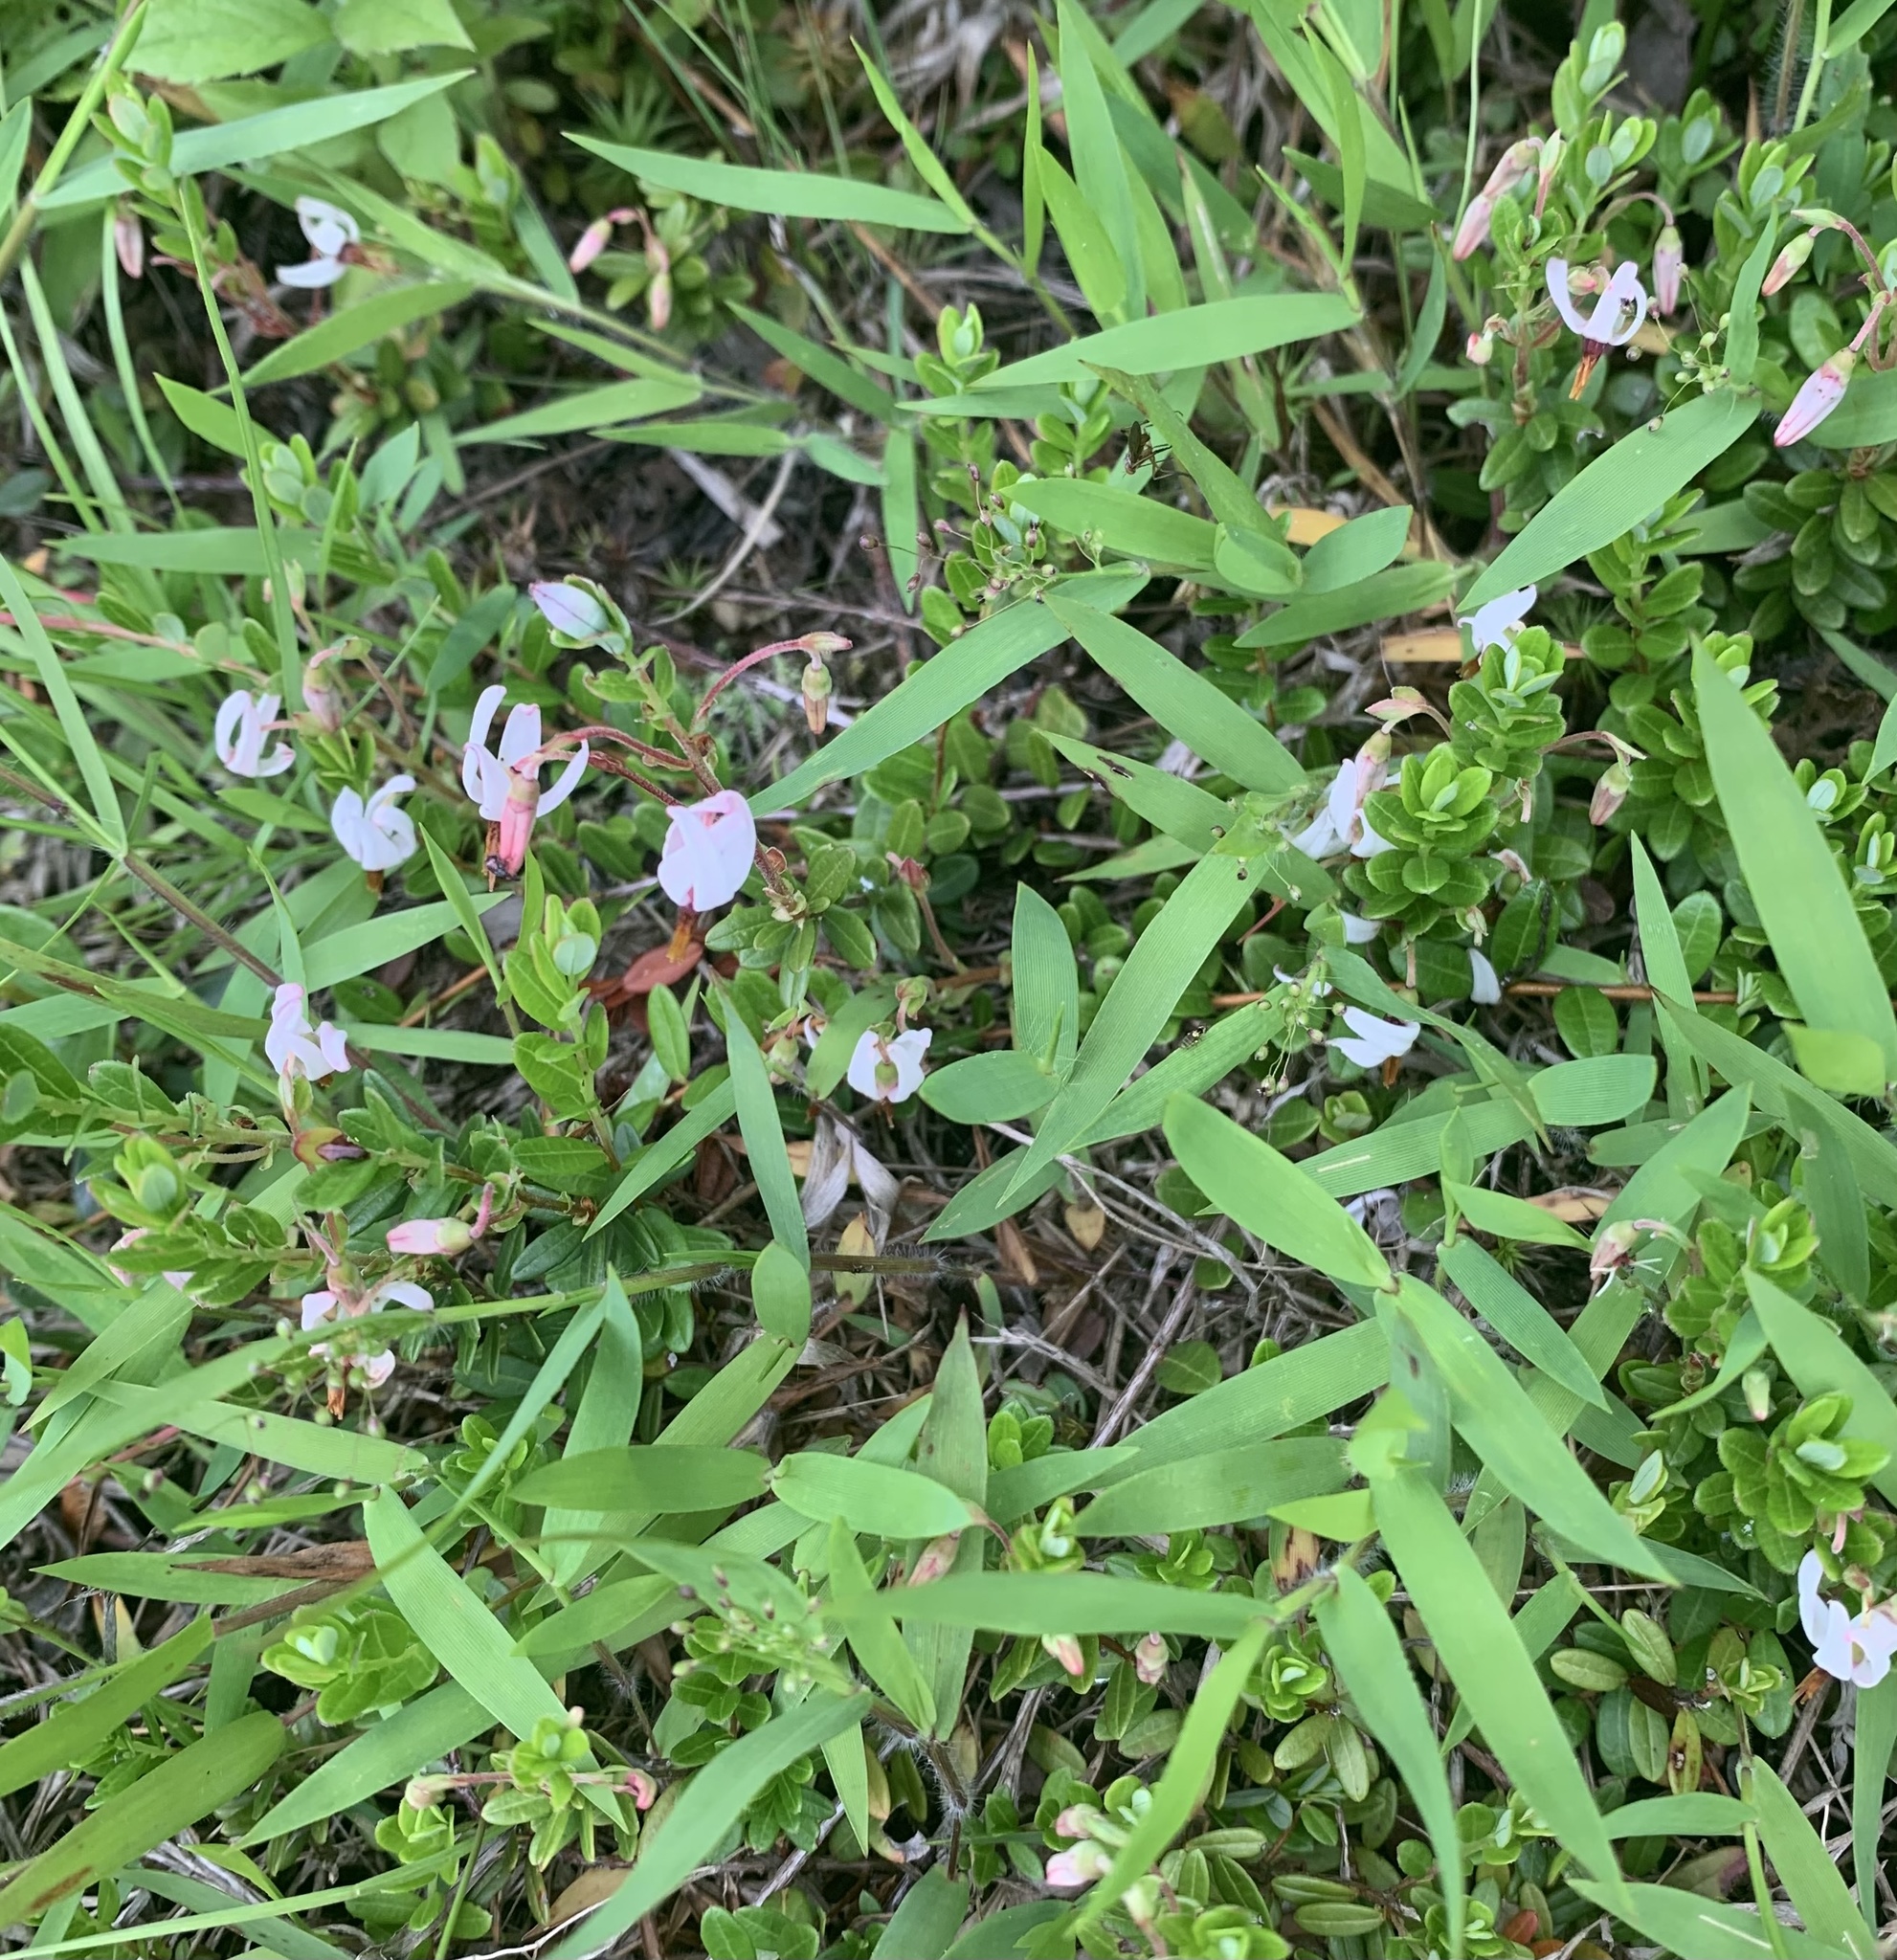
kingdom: Plantae
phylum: Tracheophyta
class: Magnoliopsida
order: Ericales
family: Ericaceae
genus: Vaccinium
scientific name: Vaccinium macrocarpon
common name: American cranberry
